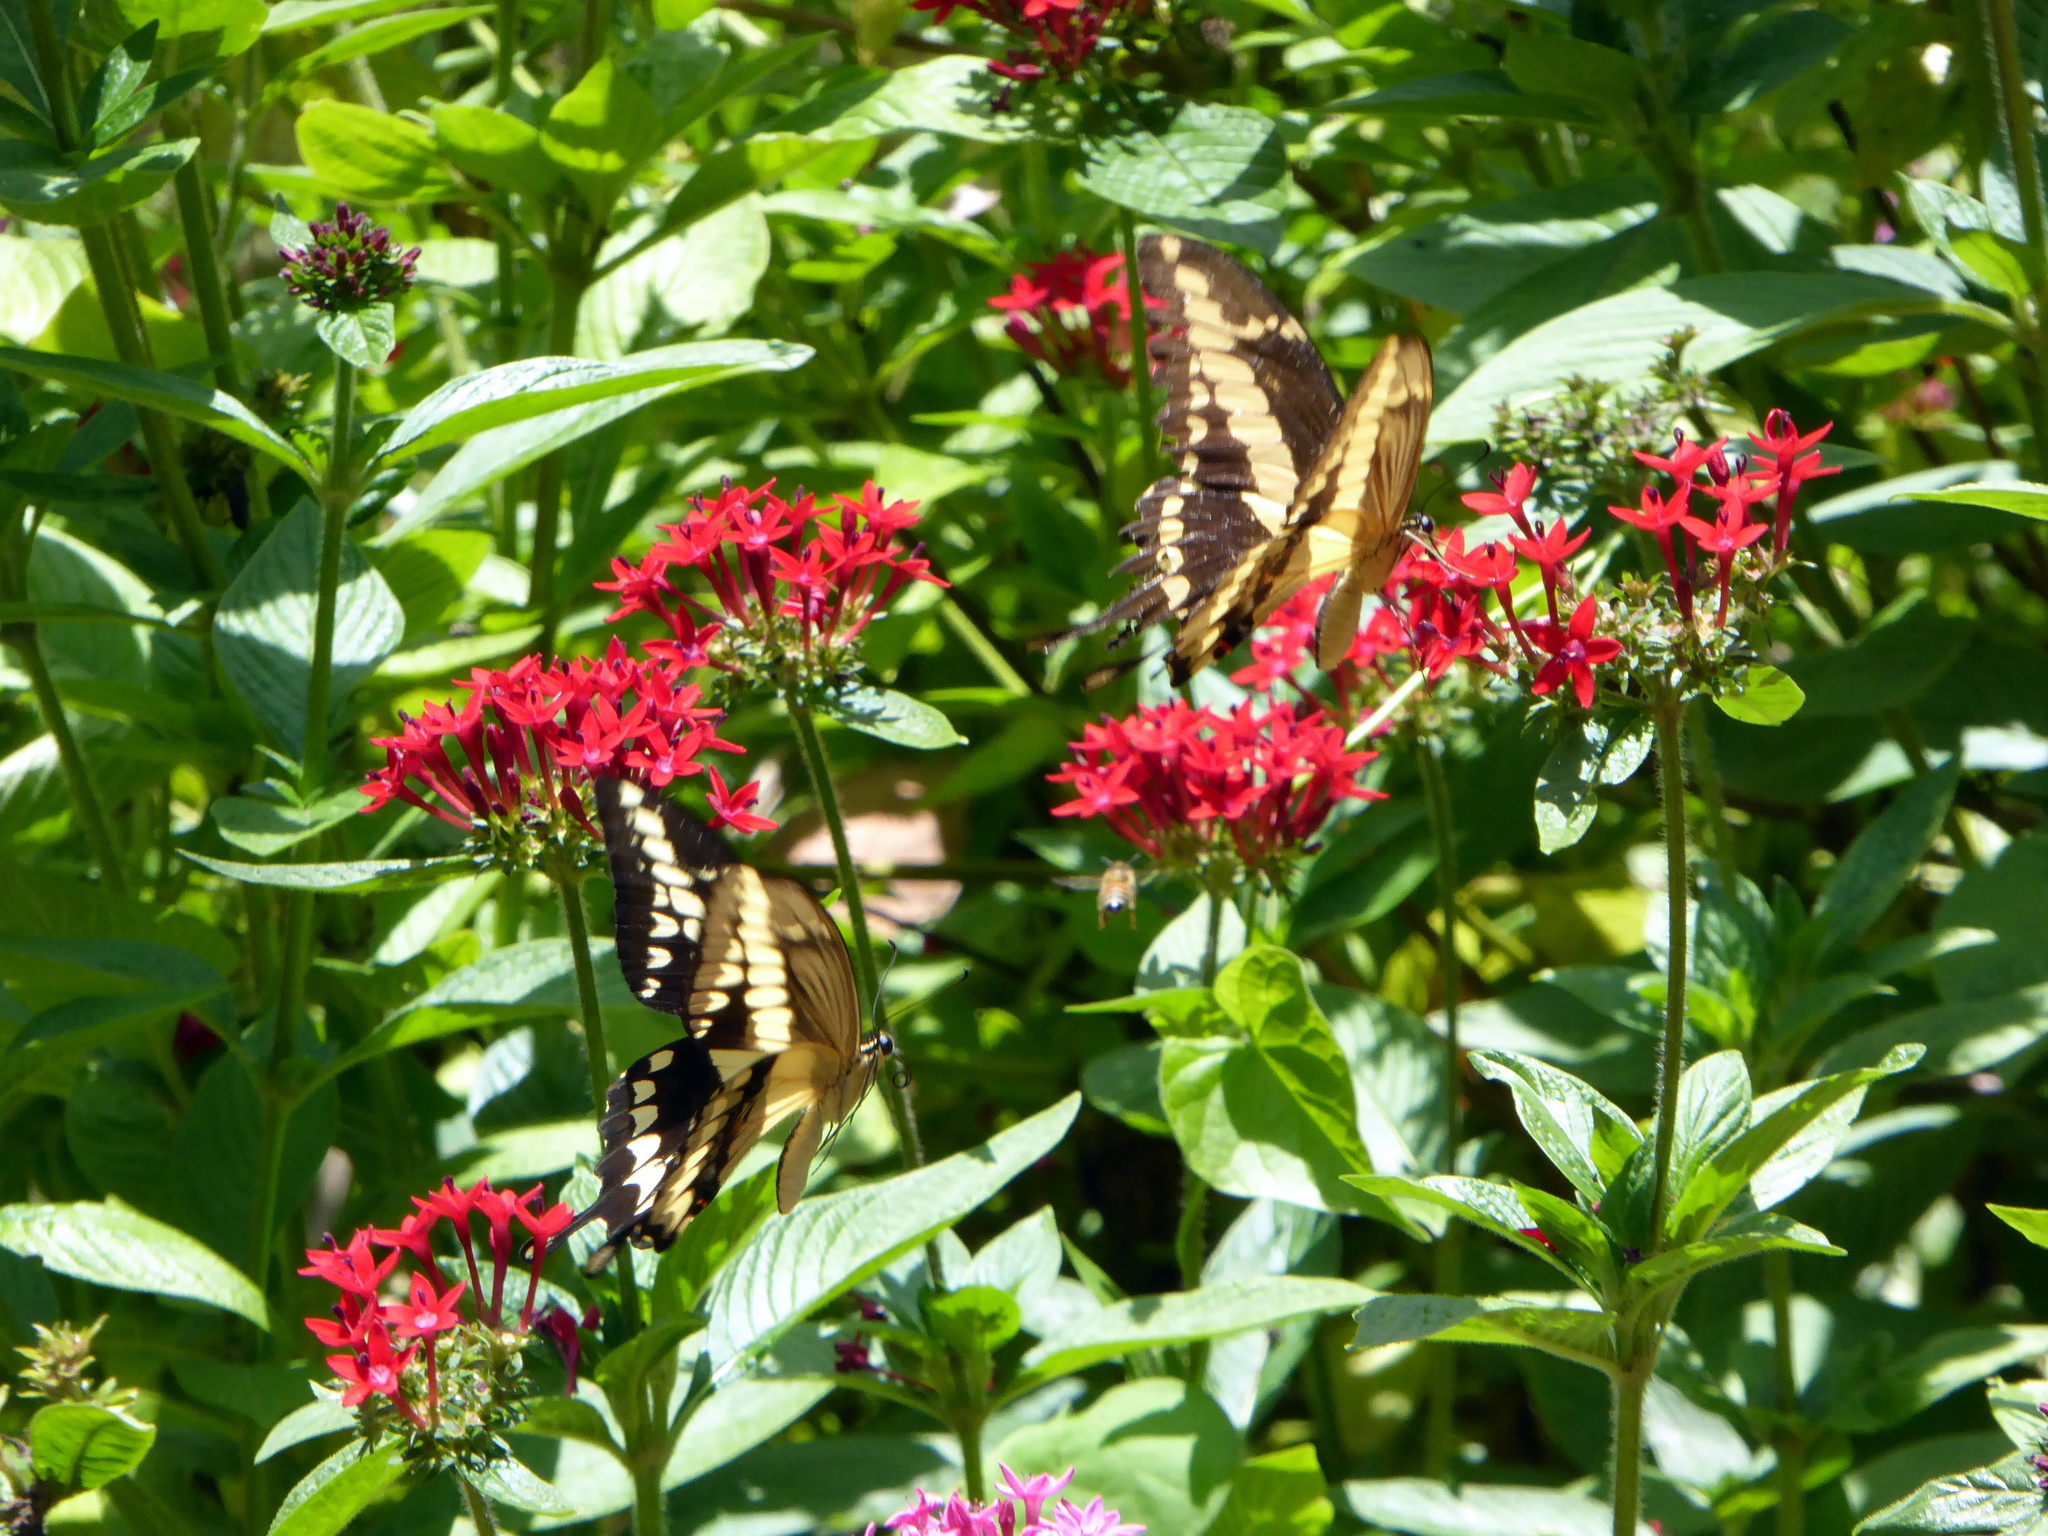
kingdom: Animalia
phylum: Arthropoda
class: Insecta
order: Lepidoptera
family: Papilionidae
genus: Papilio
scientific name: Papilio thoas
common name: King swallowtail
